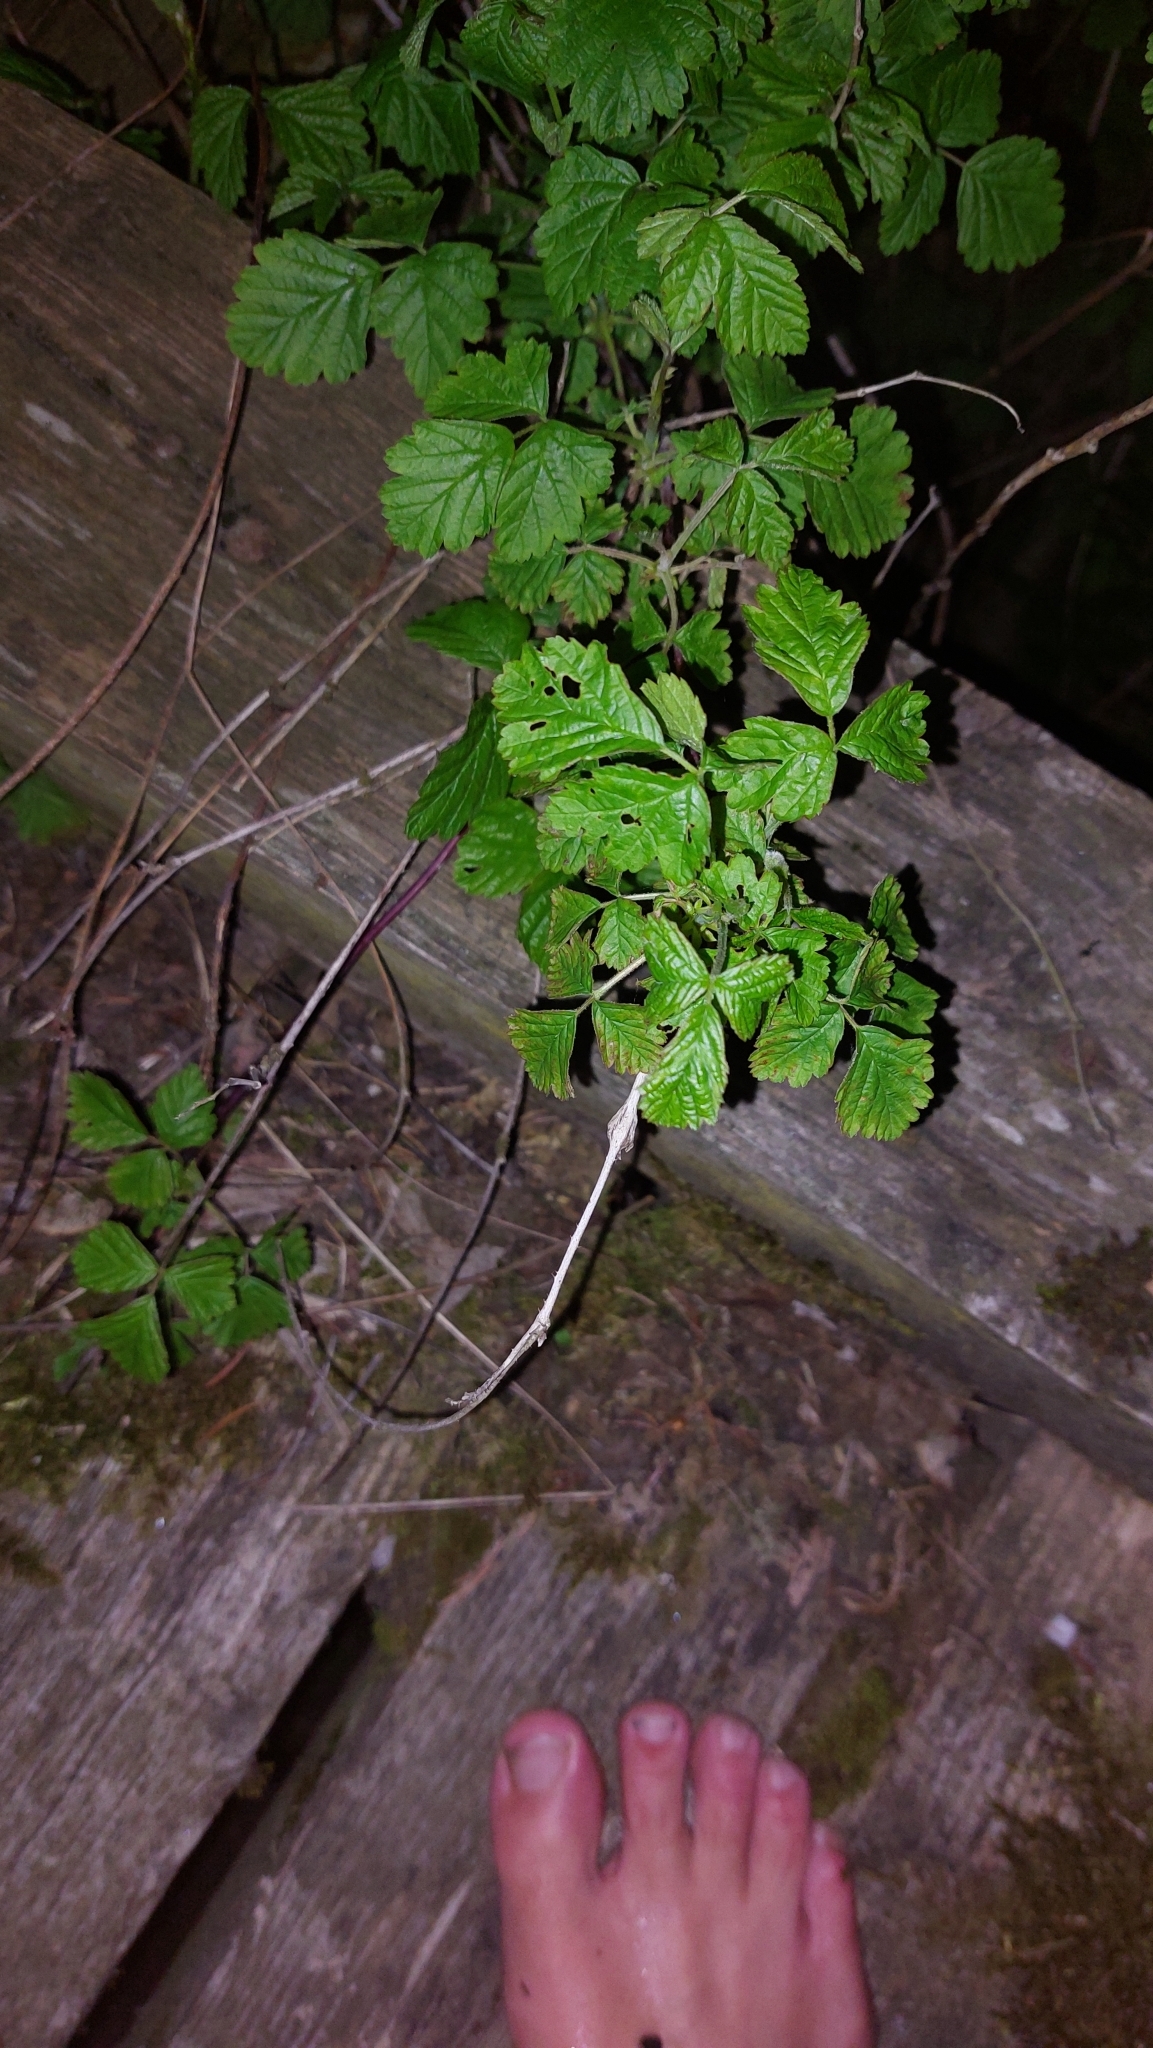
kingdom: Plantae
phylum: Tracheophyta
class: Magnoliopsida
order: Rosales
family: Rosaceae
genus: Rubus
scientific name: Rubus caesius
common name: Dewberry
